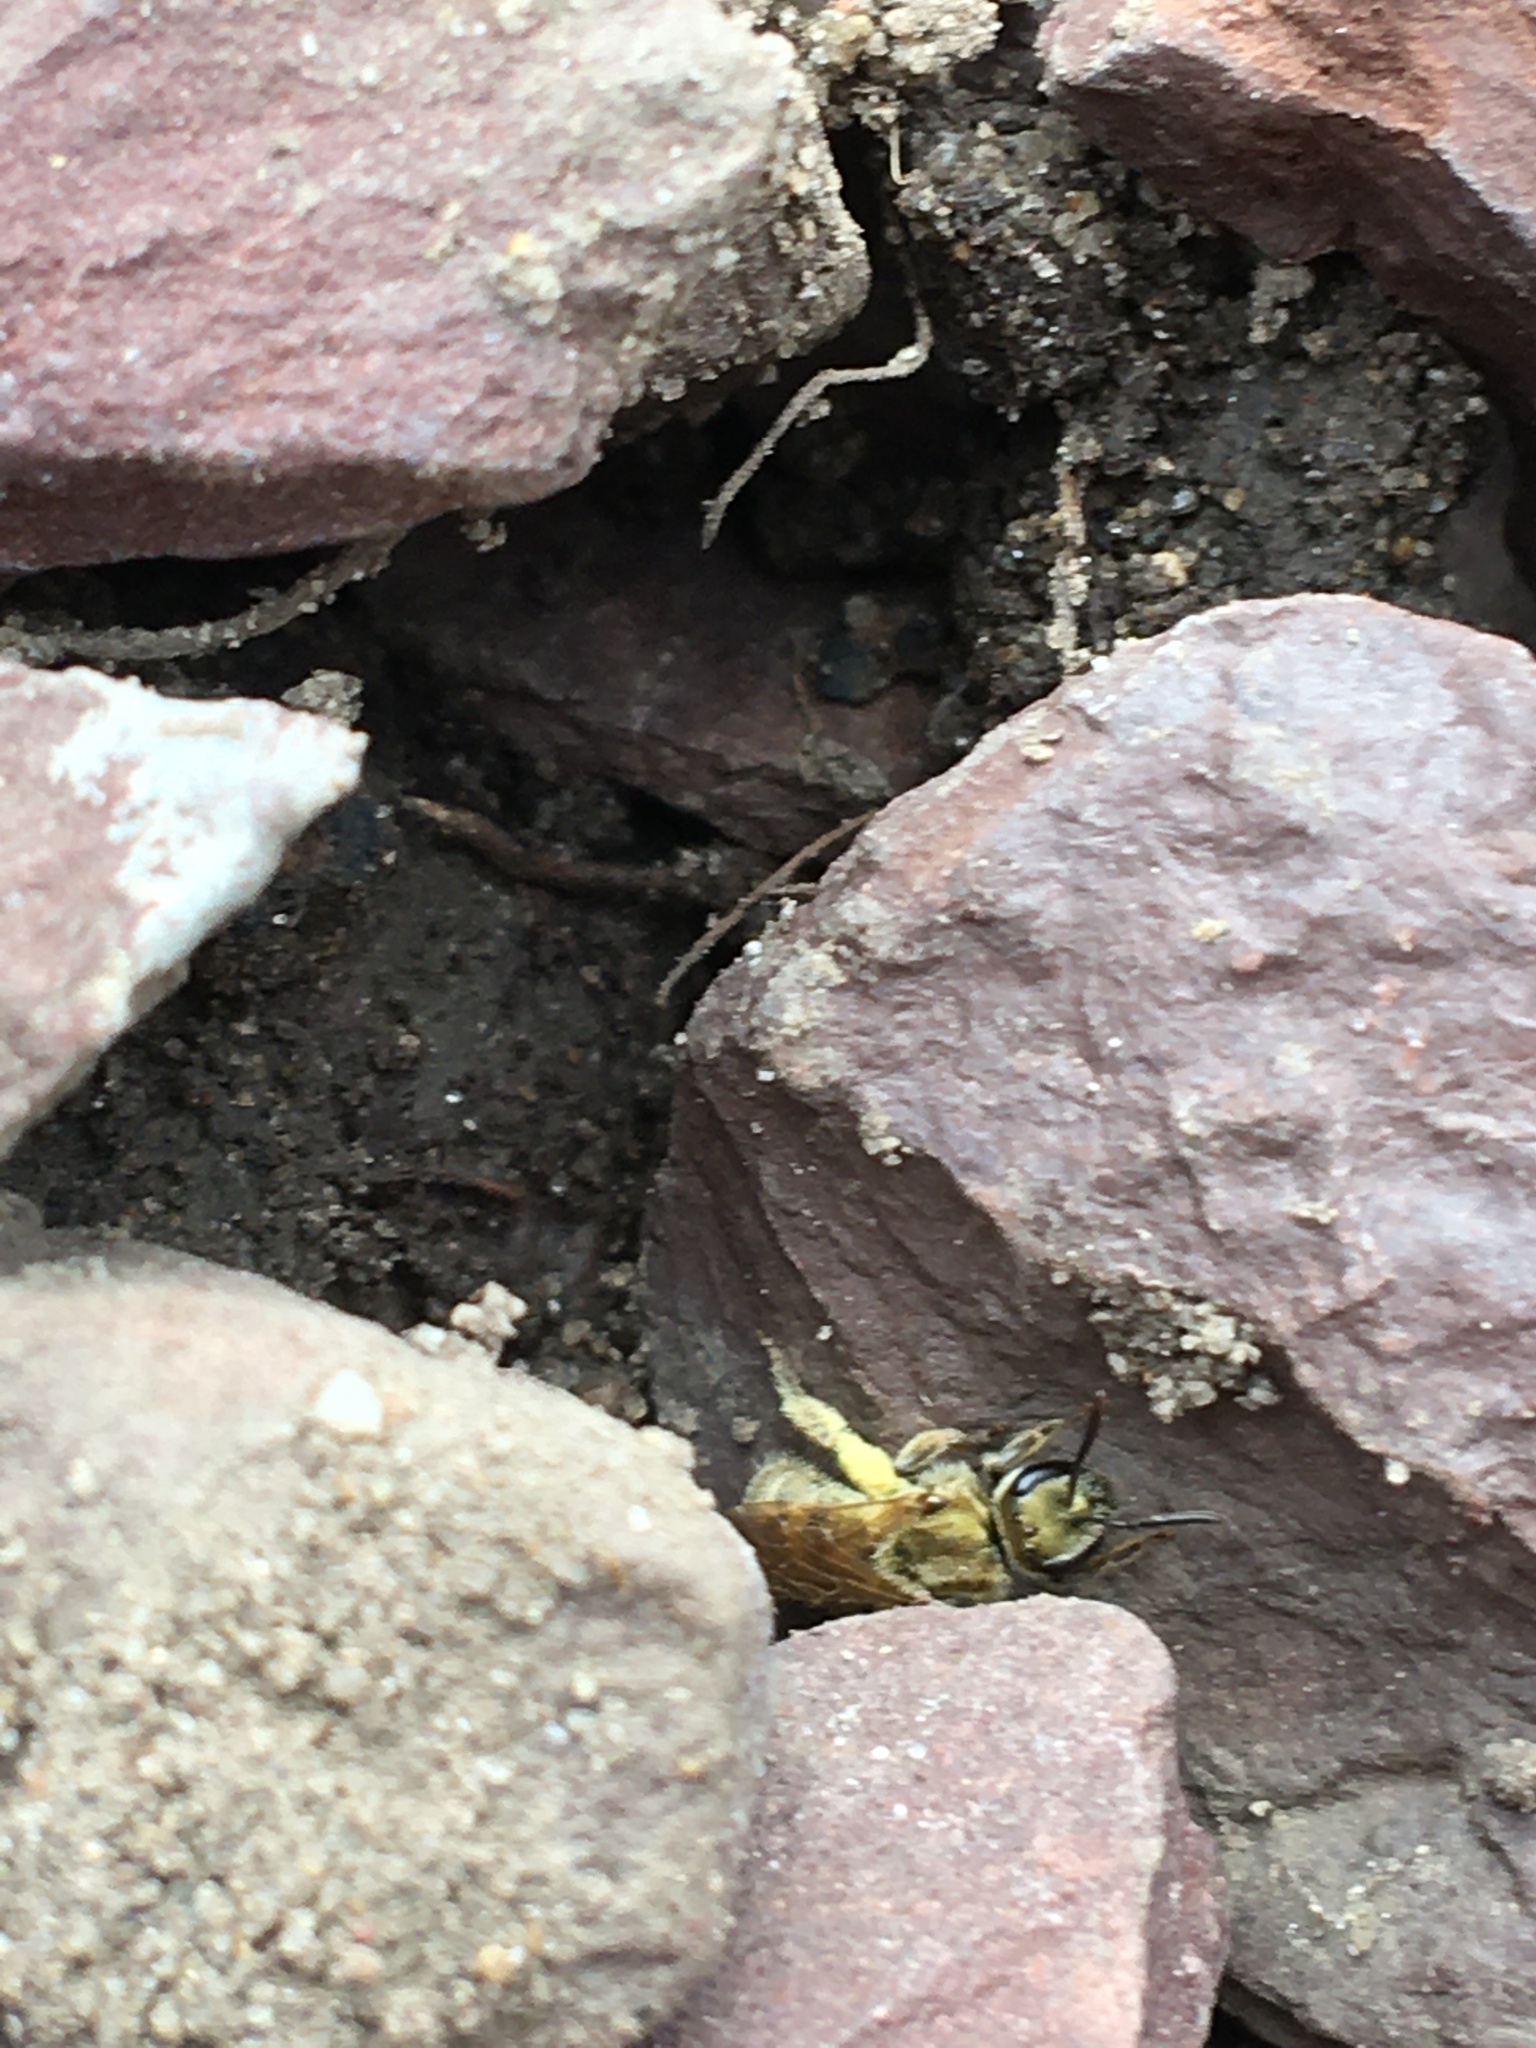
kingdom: Animalia
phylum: Arthropoda
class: Insecta
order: Hymenoptera
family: Halictidae
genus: Dialictus
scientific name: Dialictus
